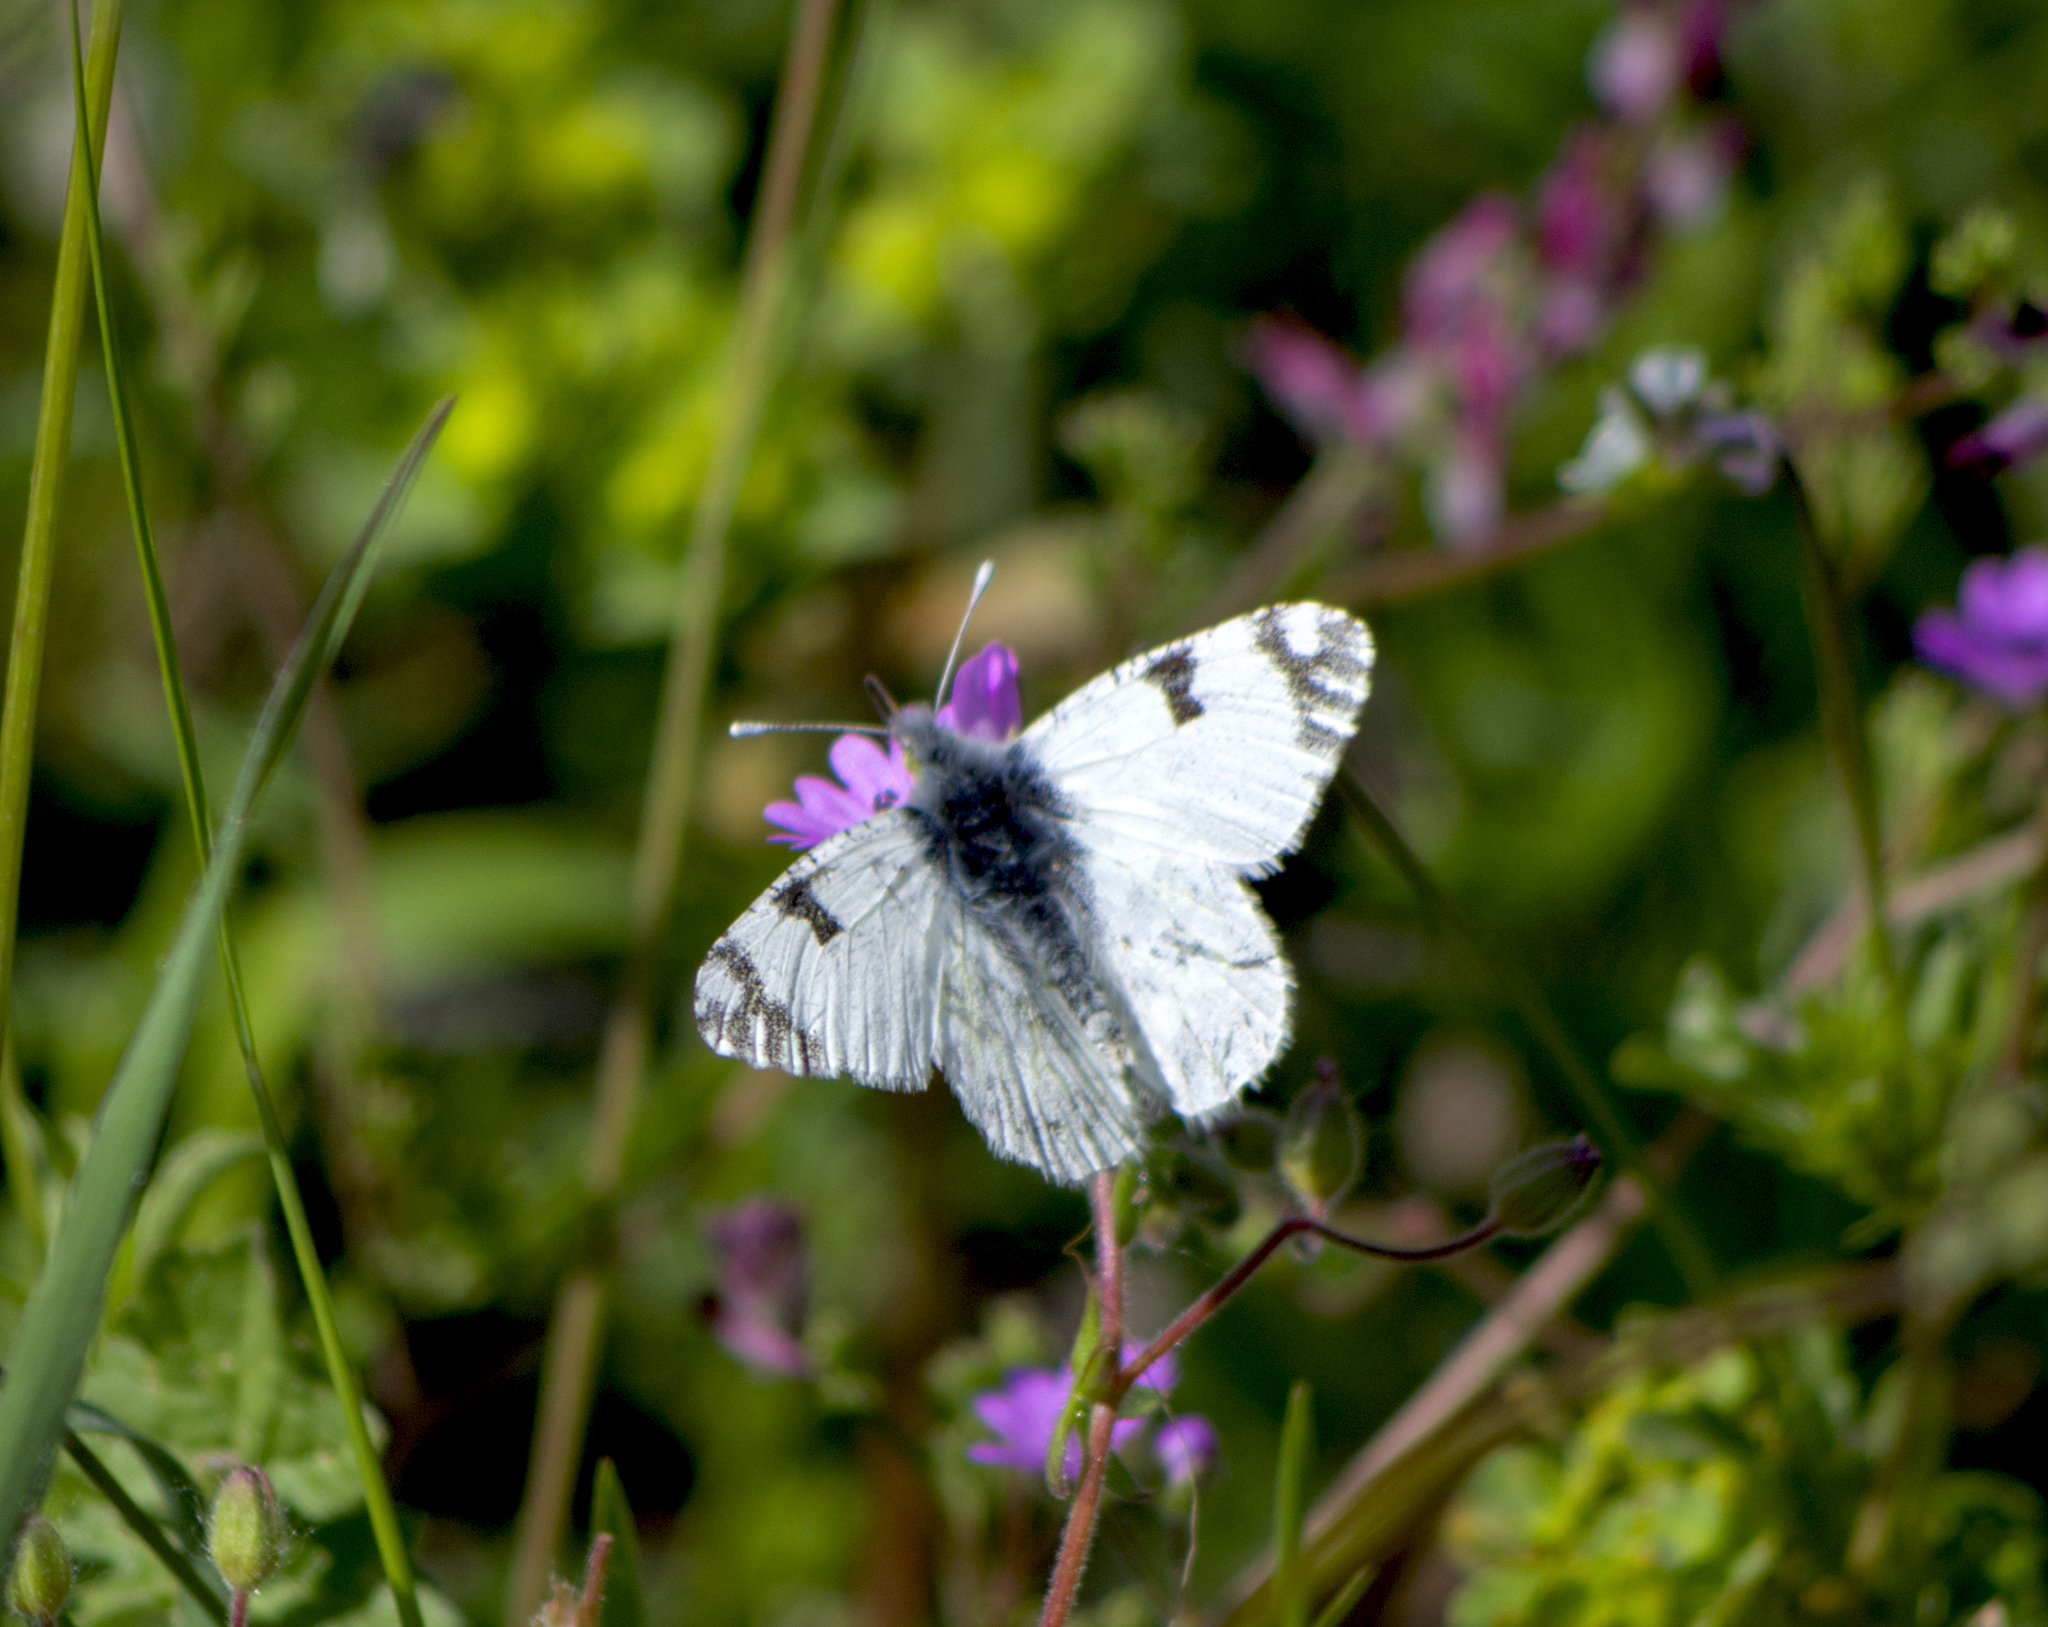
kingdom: Animalia
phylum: Arthropoda
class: Insecta
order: Lepidoptera
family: Pieridae
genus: Euchloe
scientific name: Euchloe ausonia
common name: Eastern dappled white
